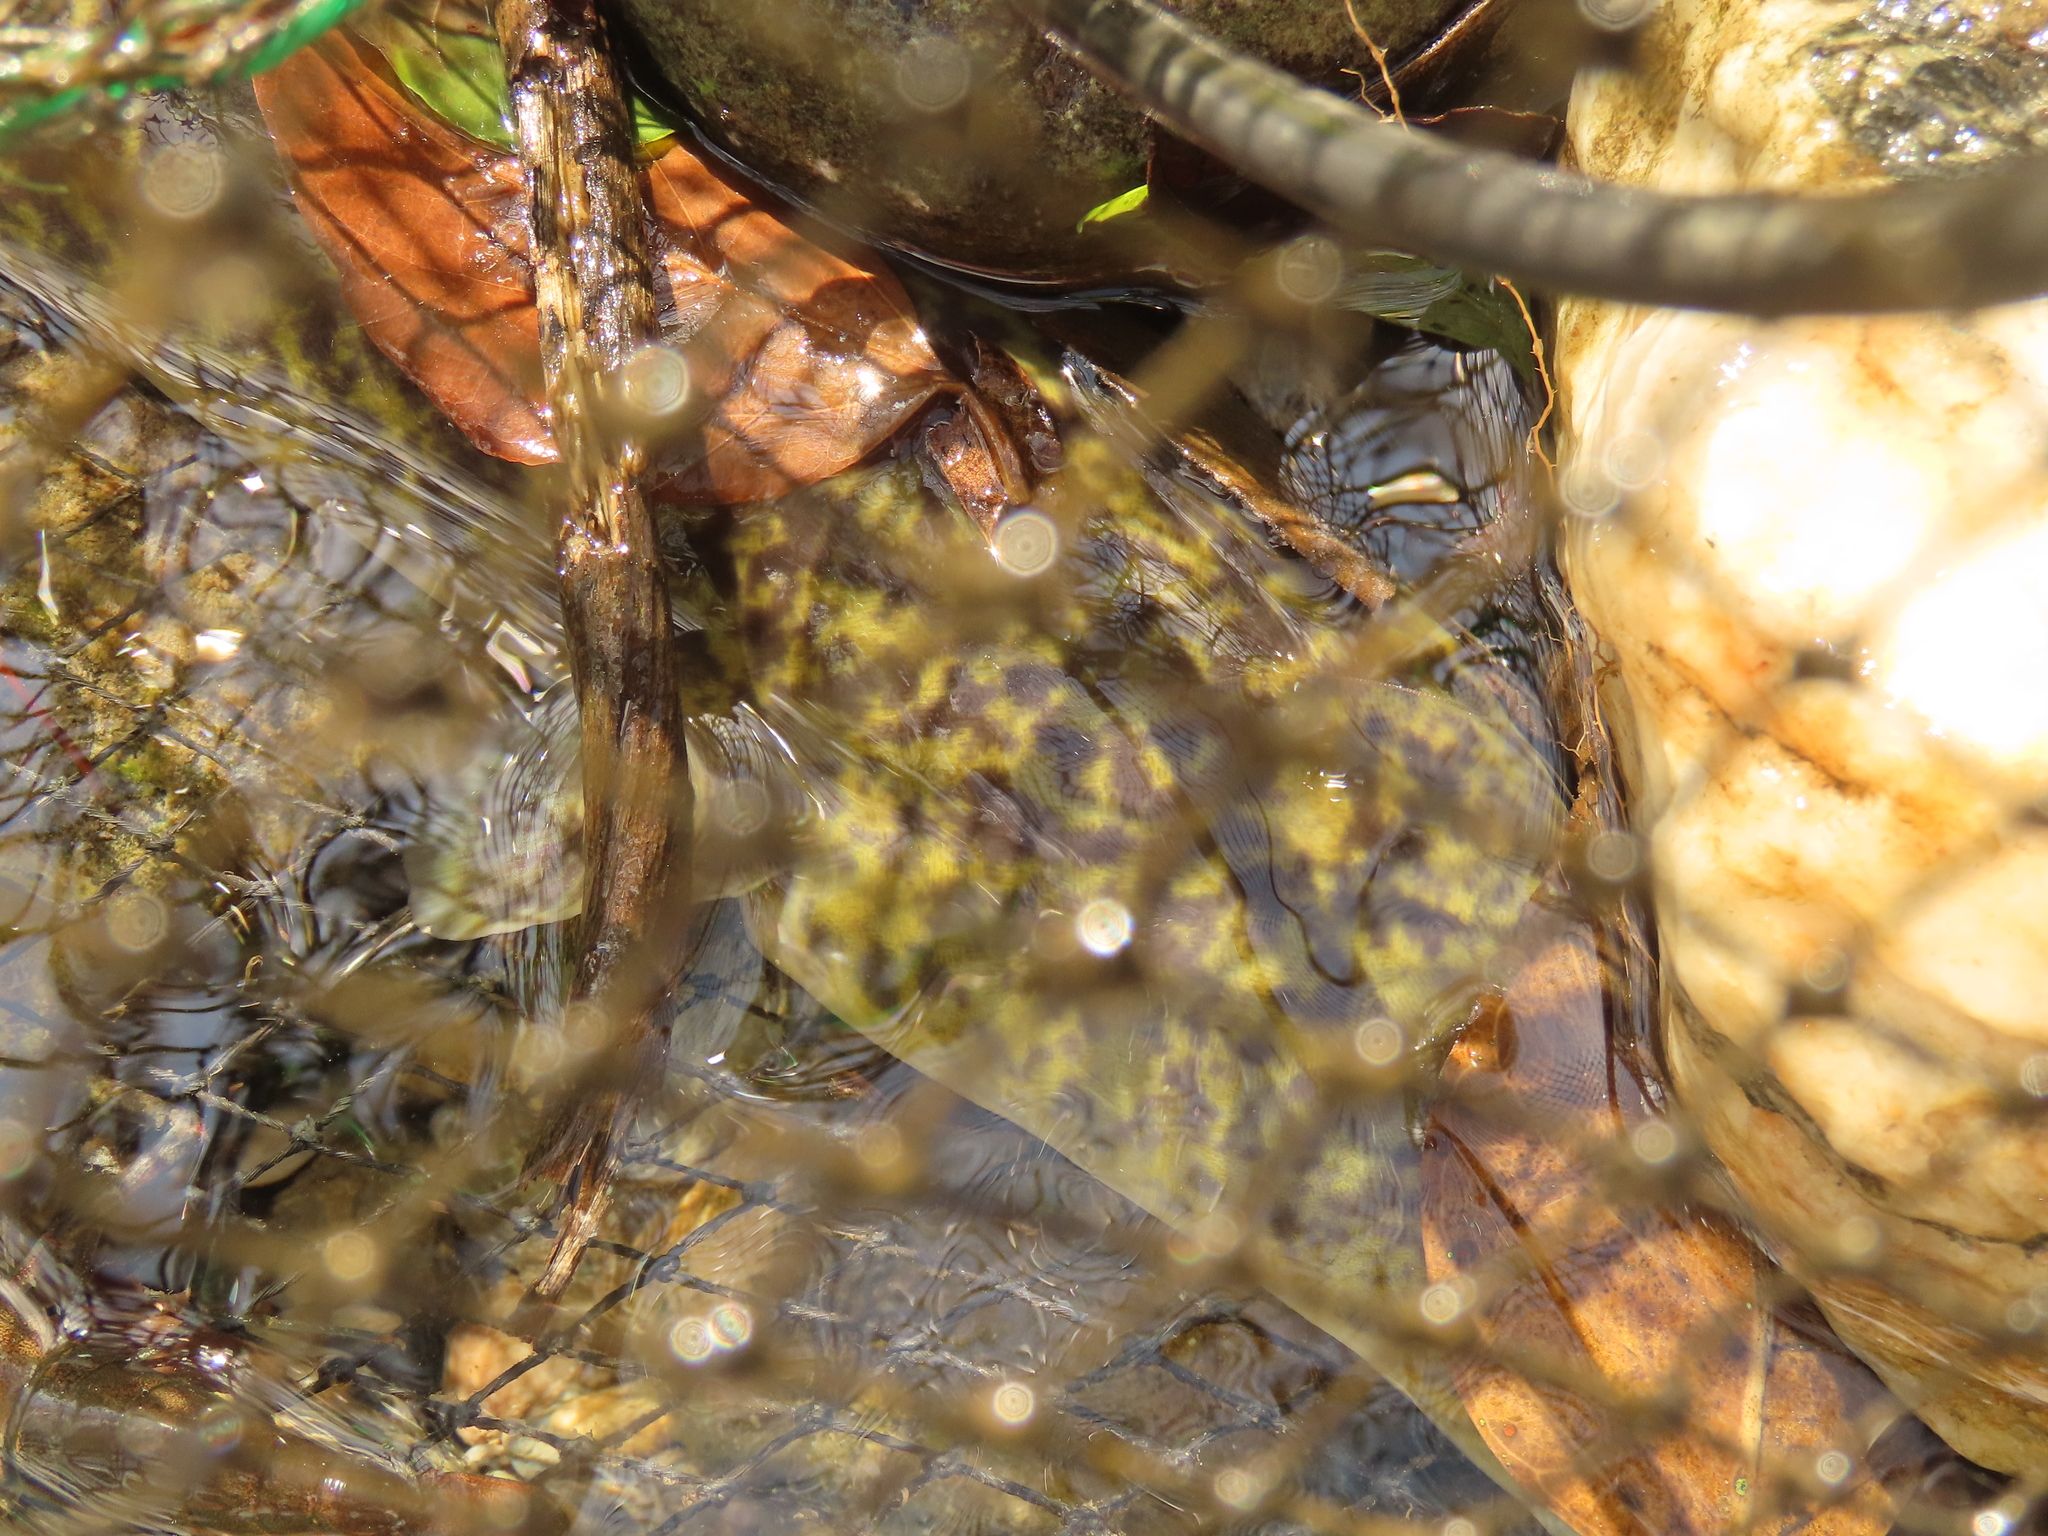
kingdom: Animalia
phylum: Chordata
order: Anguilliformes
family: Anguillidae
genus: Anguilla
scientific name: Anguilla marmorata
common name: Giant mottled eel
